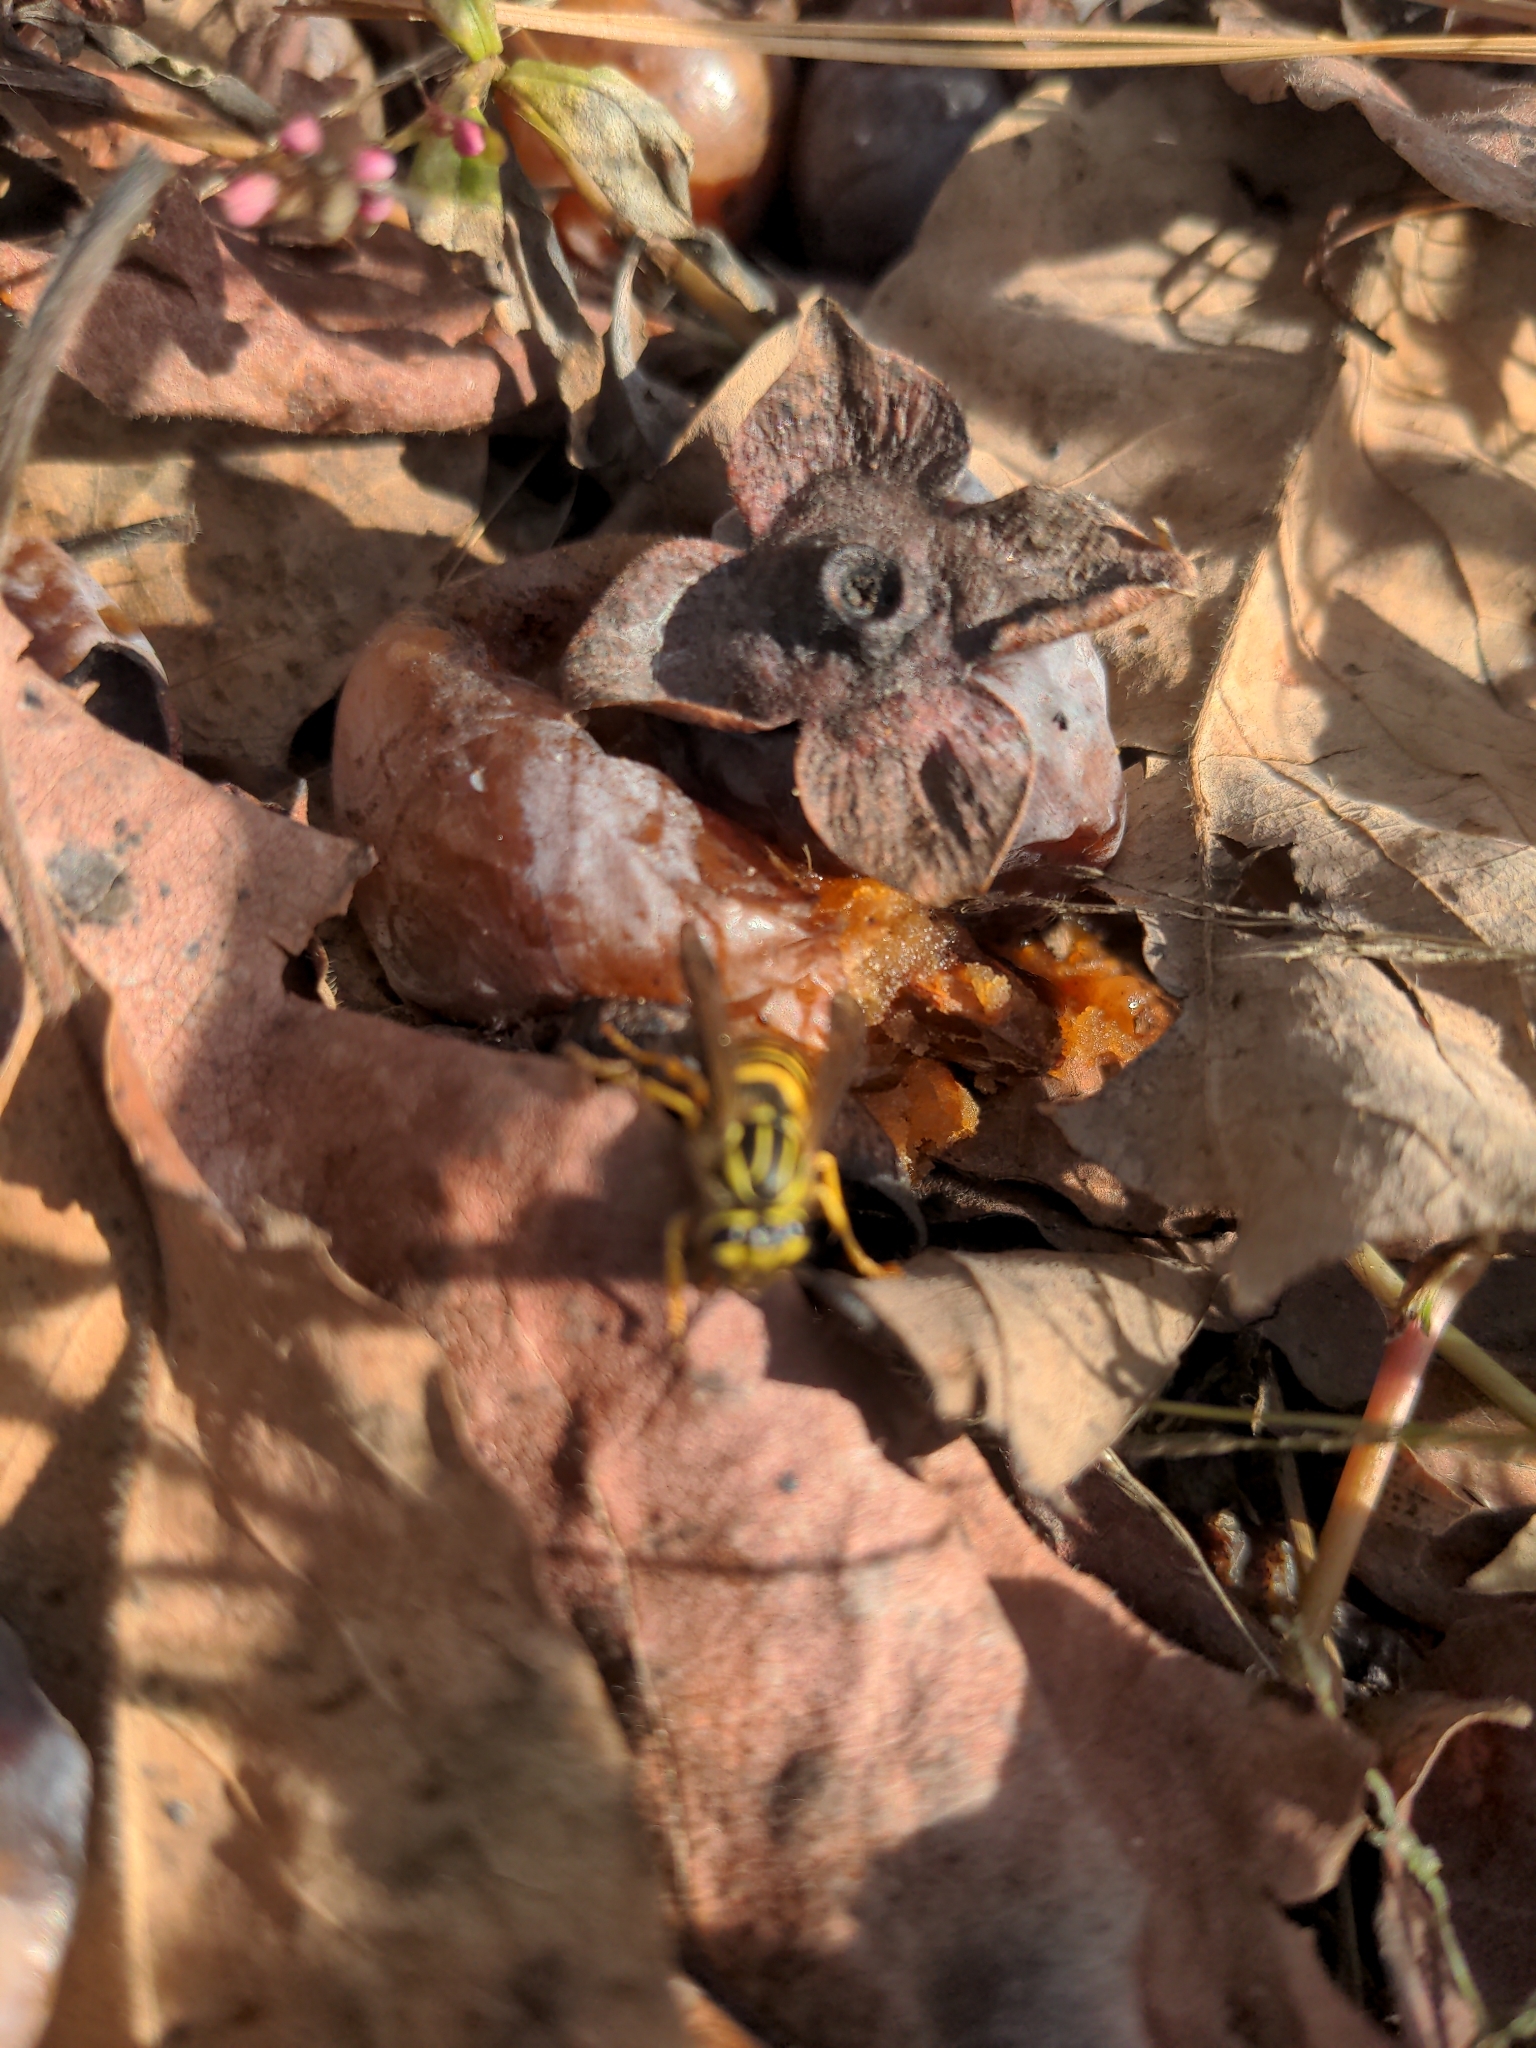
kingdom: Animalia
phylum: Arthropoda
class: Insecta
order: Hymenoptera
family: Vespidae
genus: Vespula
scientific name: Vespula squamosa
